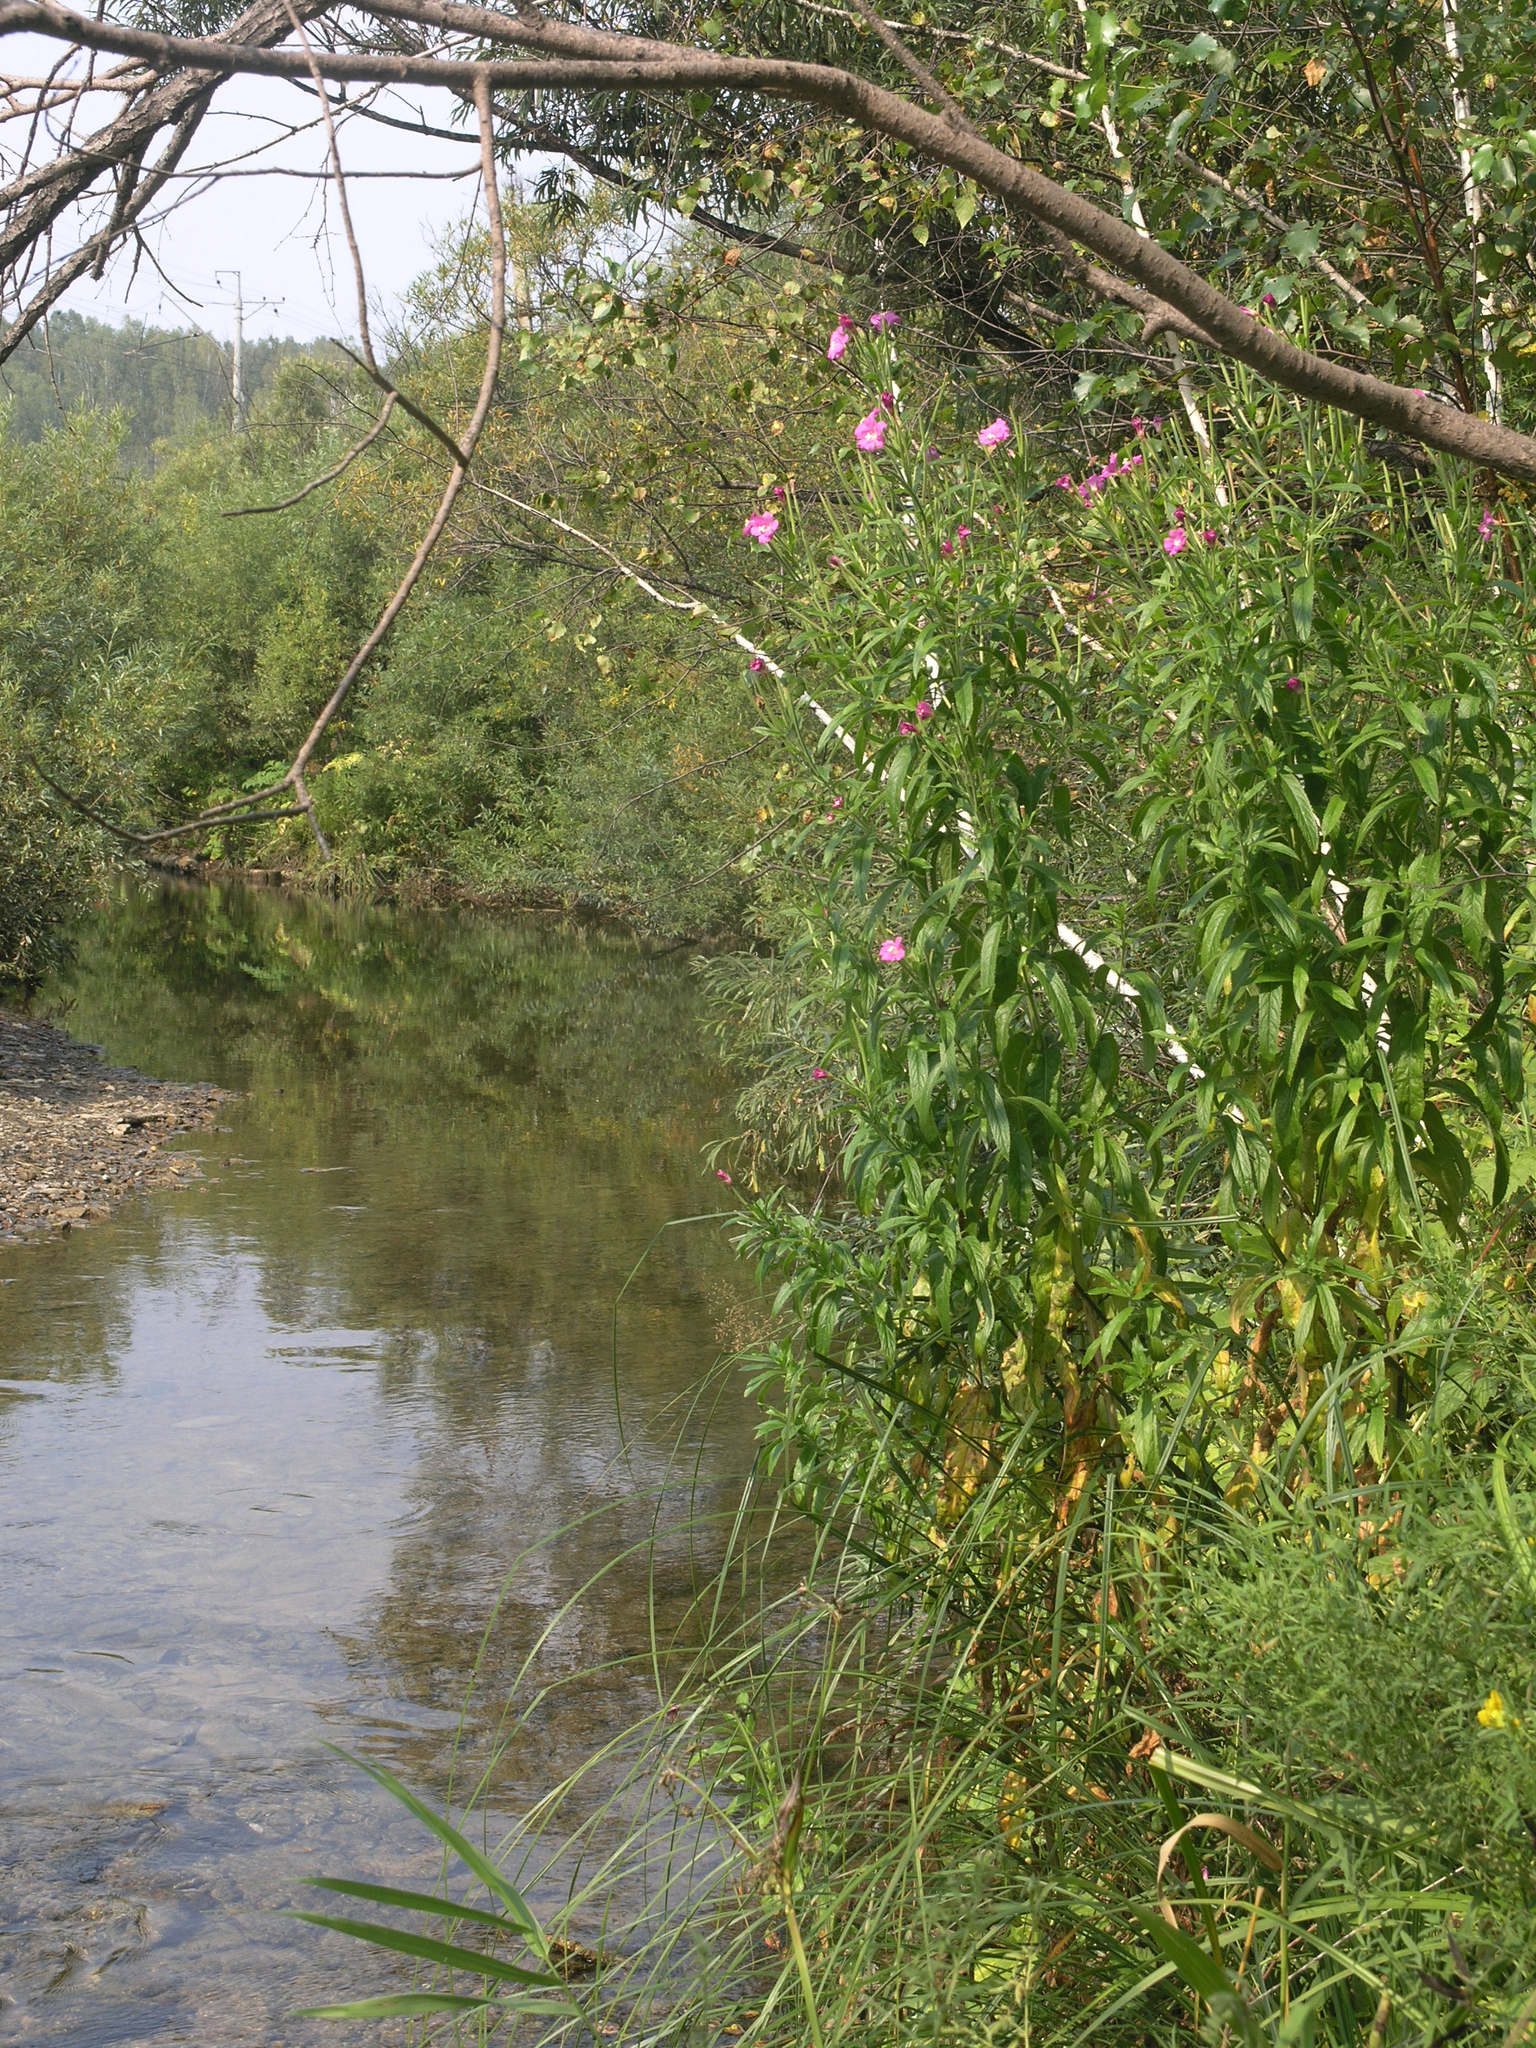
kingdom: Plantae
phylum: Tracheophyta
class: Magnoliopsida
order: Myrtales
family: Onagraceae
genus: Epilobium
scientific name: Epilobium hirsutum
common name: Great willowherb
